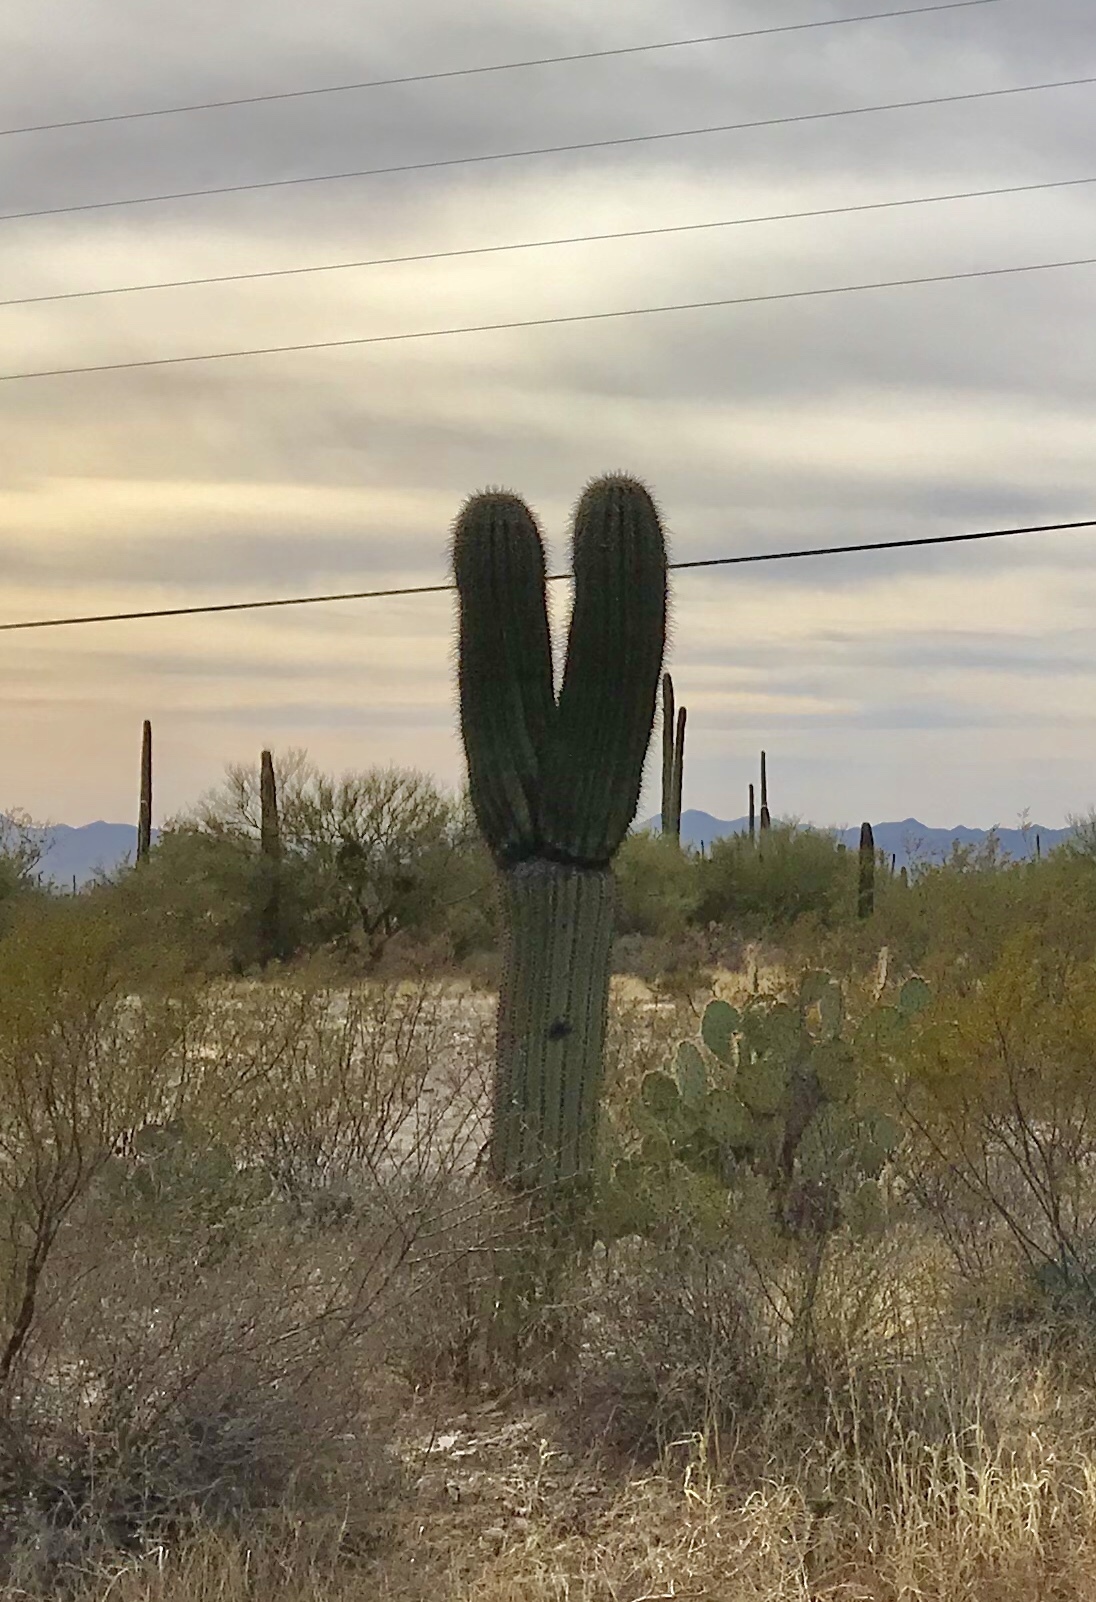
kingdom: Plantae
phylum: Tracheophyta
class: Magnoliopsida
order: Caryophyllales
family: Cactaceae
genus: Carnegiea
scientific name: Carnegiea gigantea
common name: Saguaro
